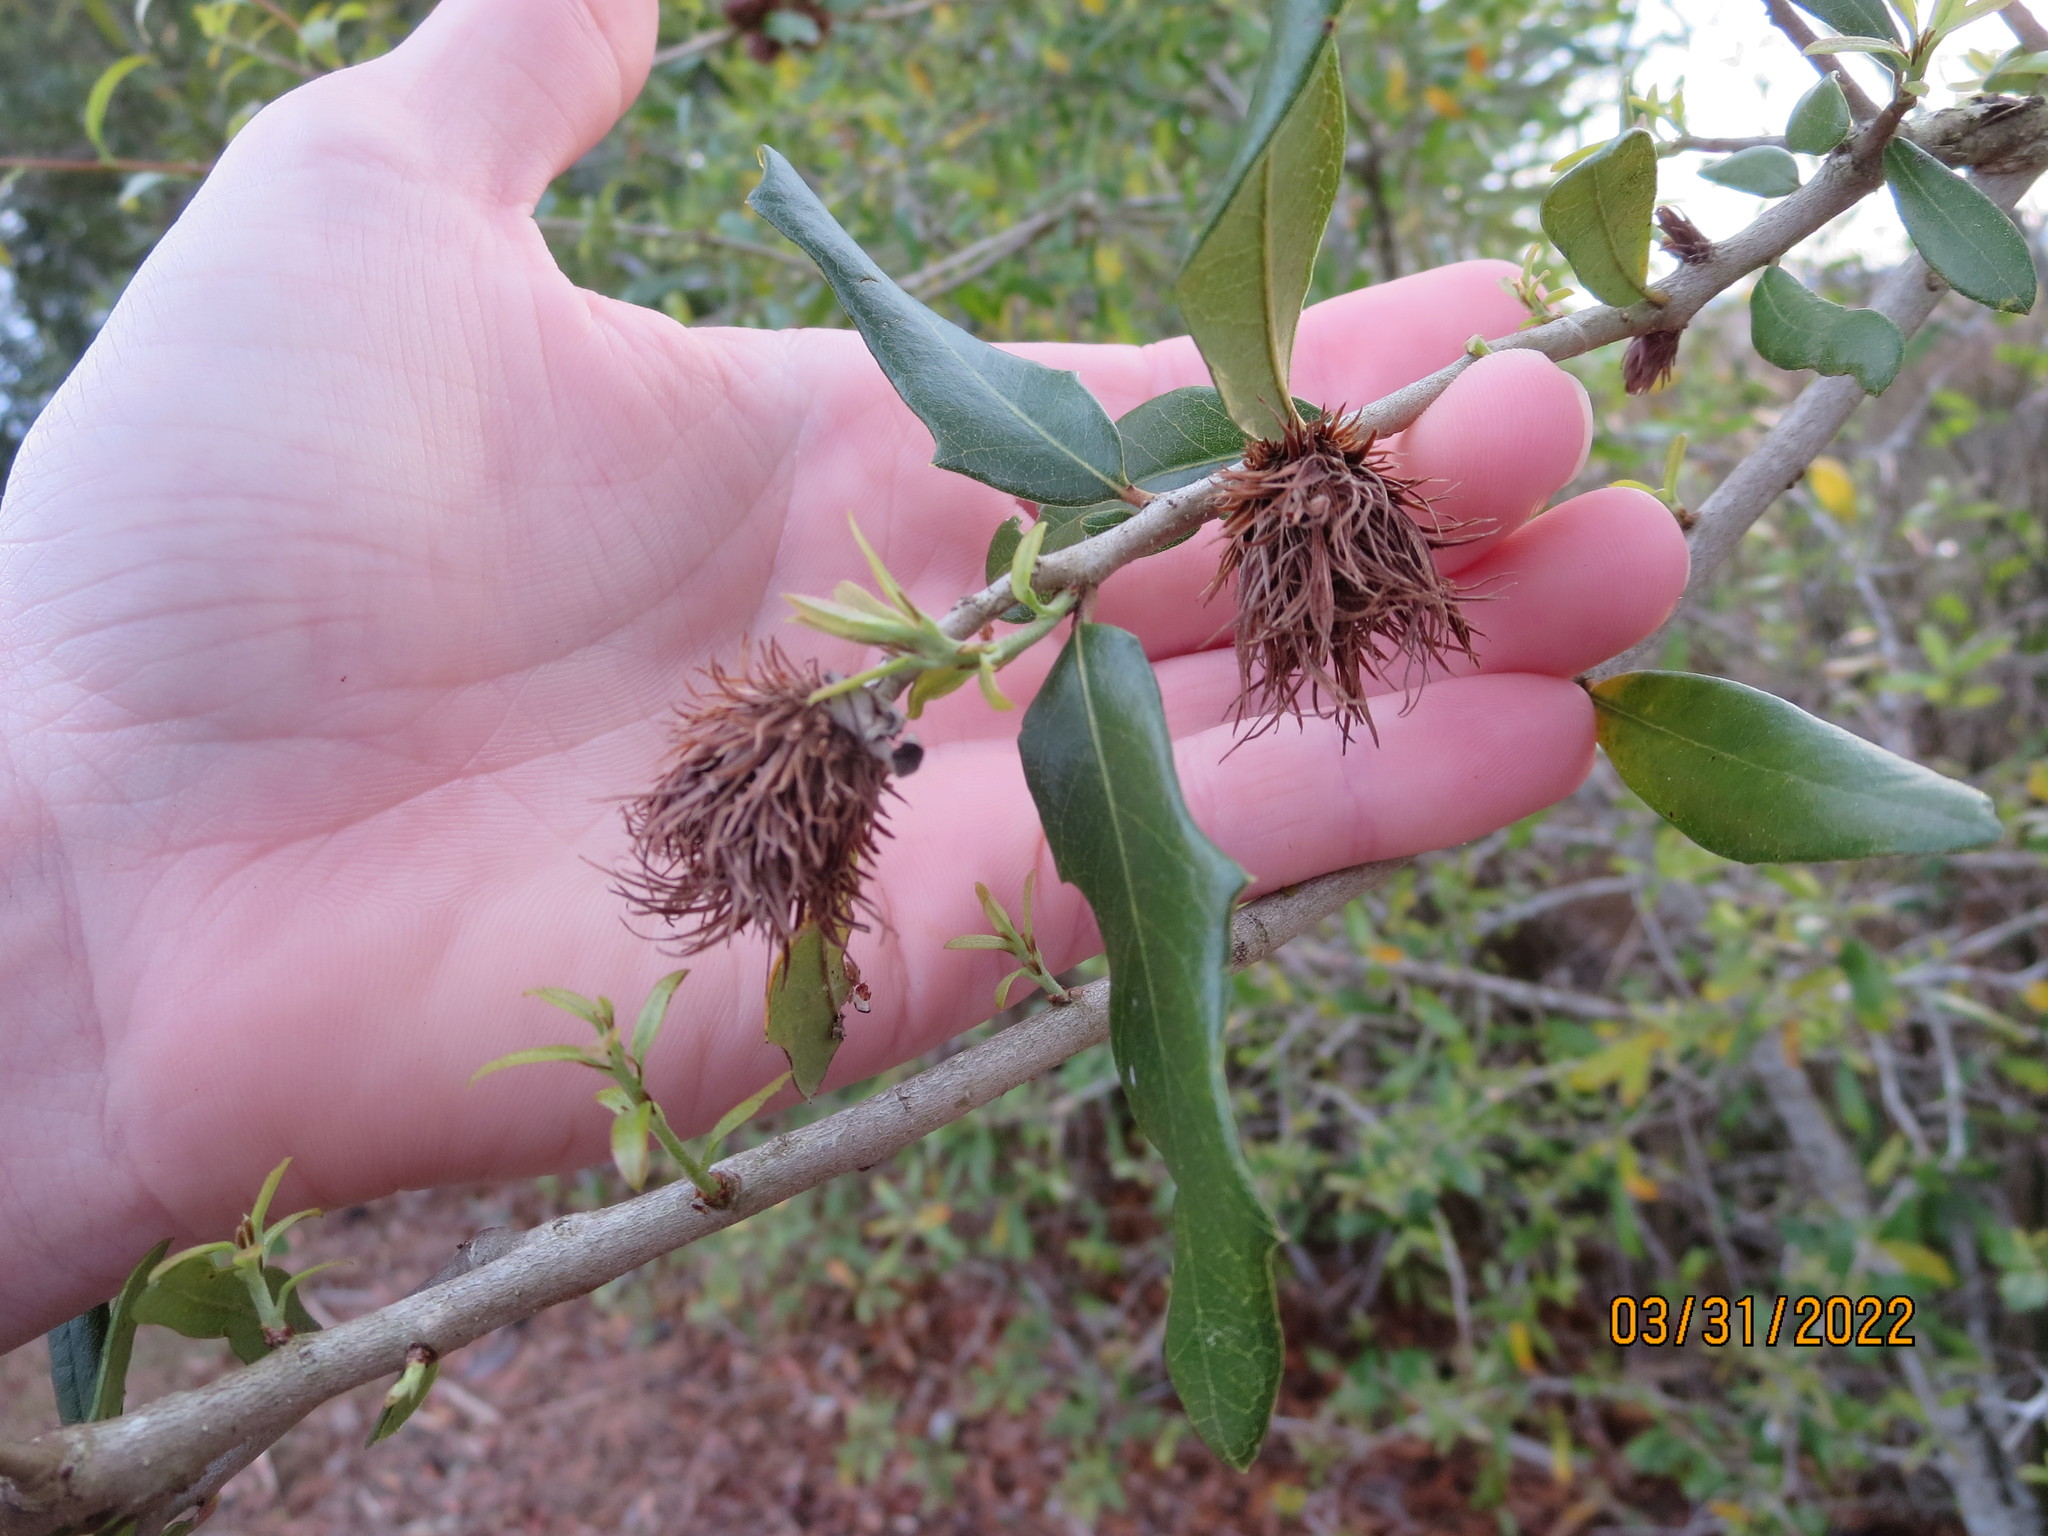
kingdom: Animalia
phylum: Arthropoda
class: Insecta
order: Hymenoptera
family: Cynipidae
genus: Andricus
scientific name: Andricus quercusfoliatus
